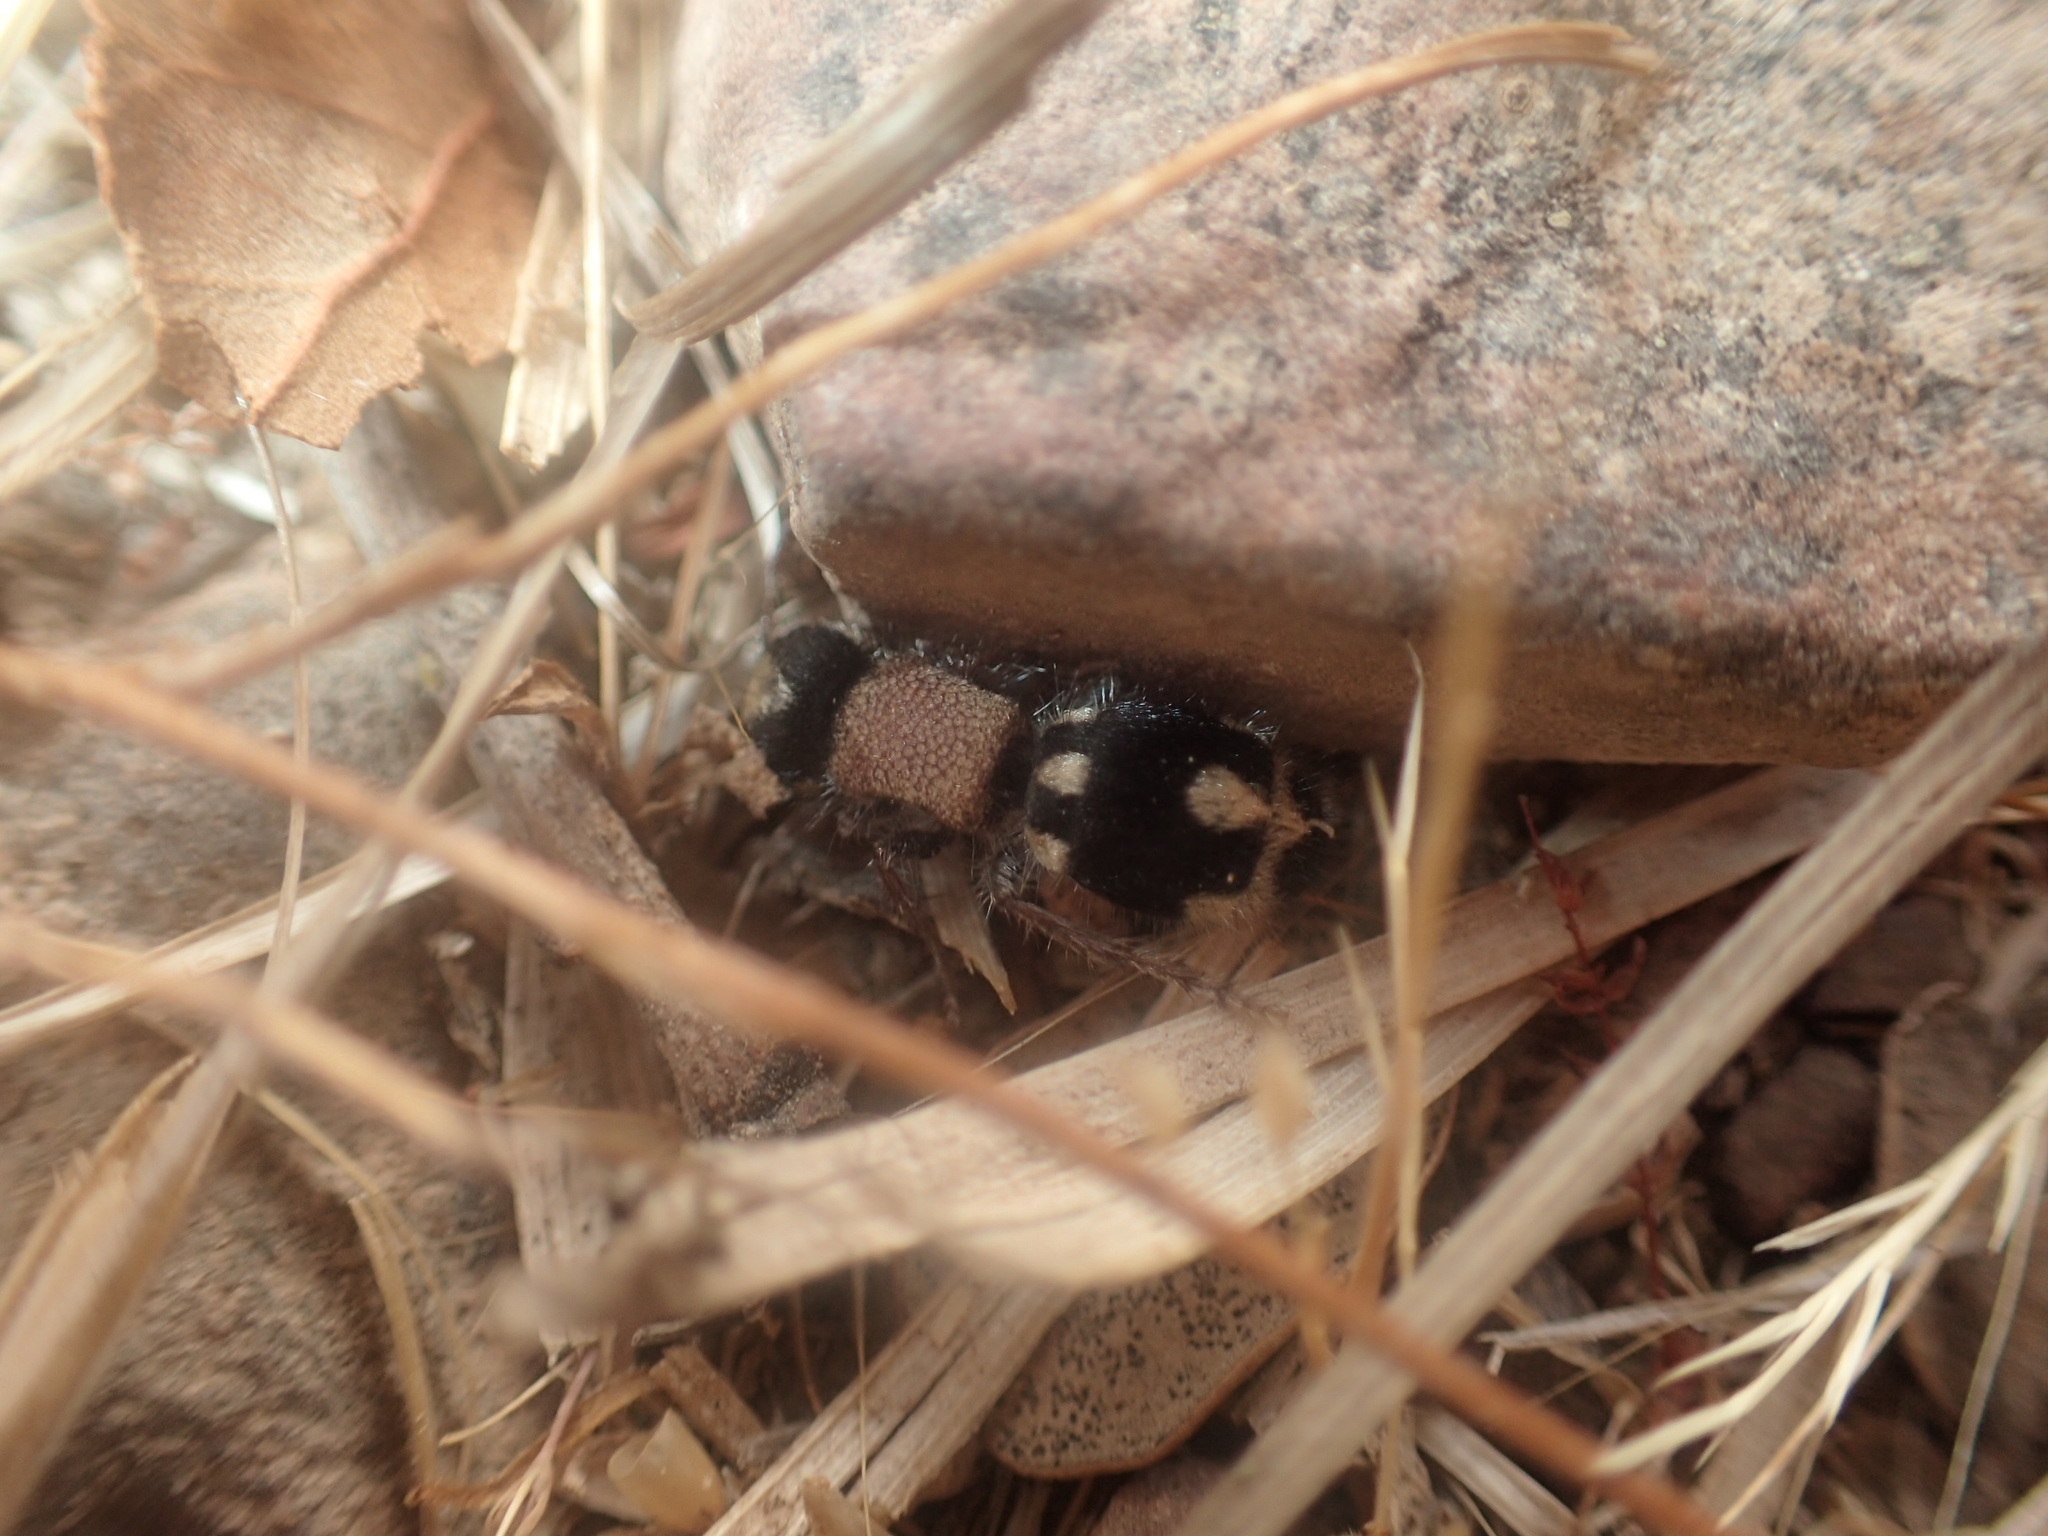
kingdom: Animalia
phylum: Arthropoda
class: Insecta
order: Hymenoptera
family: Mutillidae
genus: Ronisia
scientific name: Ronisia barbarula
